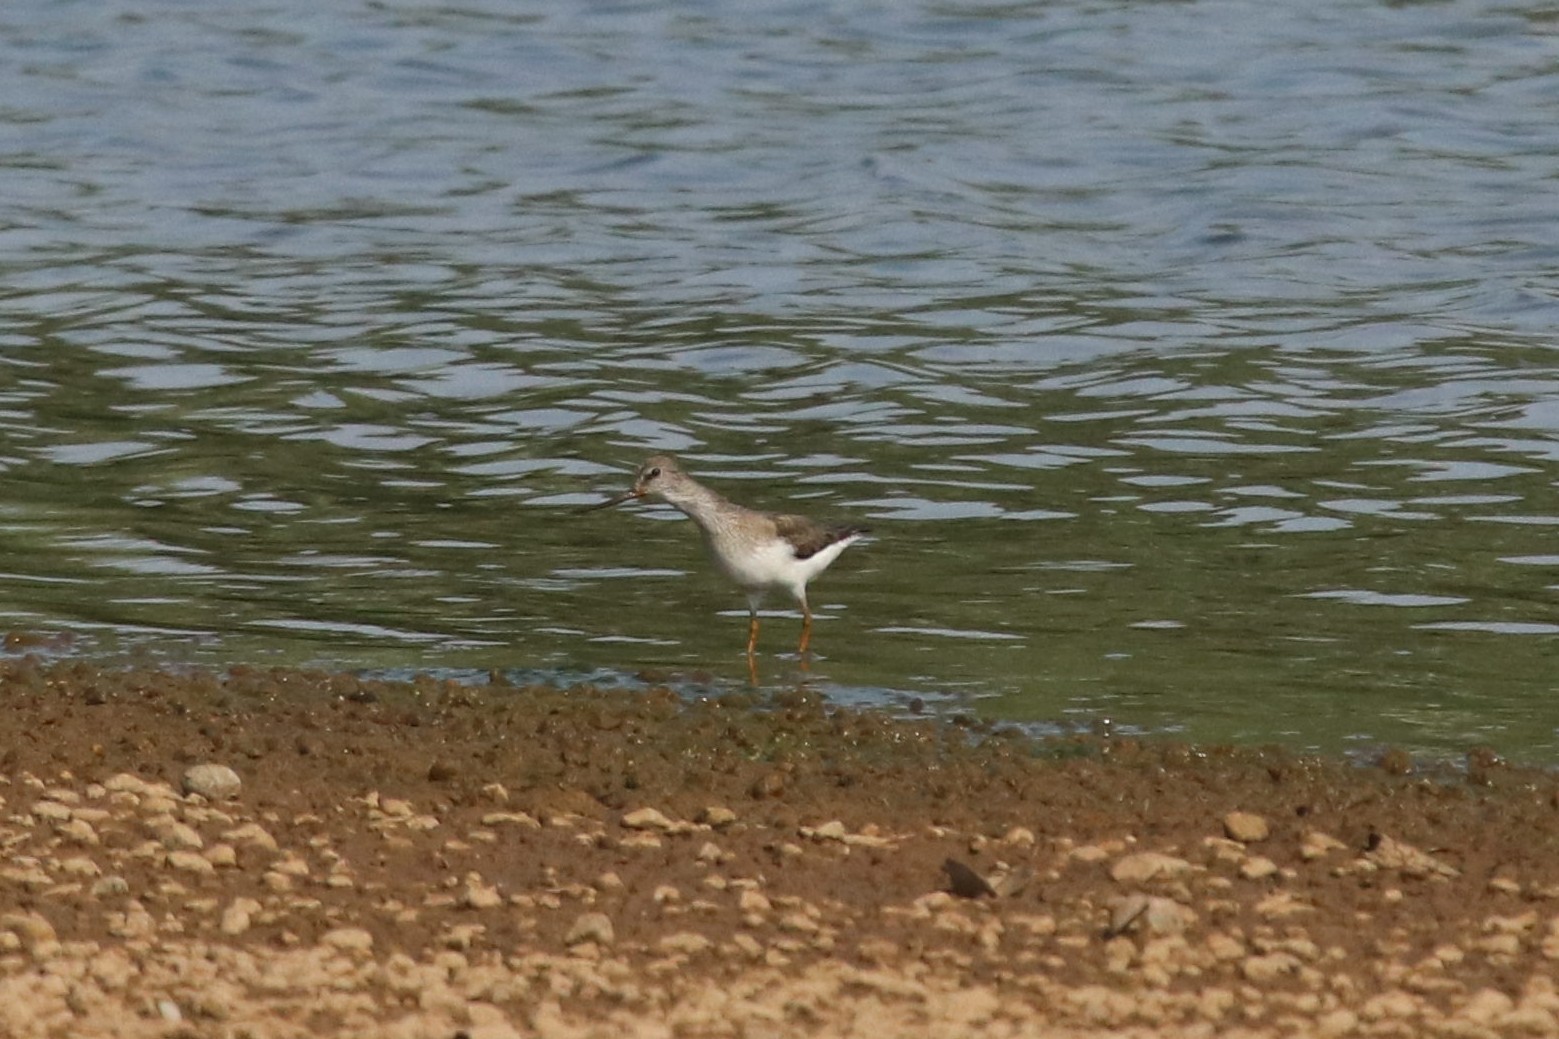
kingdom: Animalia
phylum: Chordata
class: Aves
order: Charadriiformes
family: Scolopacidae
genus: Xenus
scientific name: Xenus cinereus
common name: Terek sandpiper
